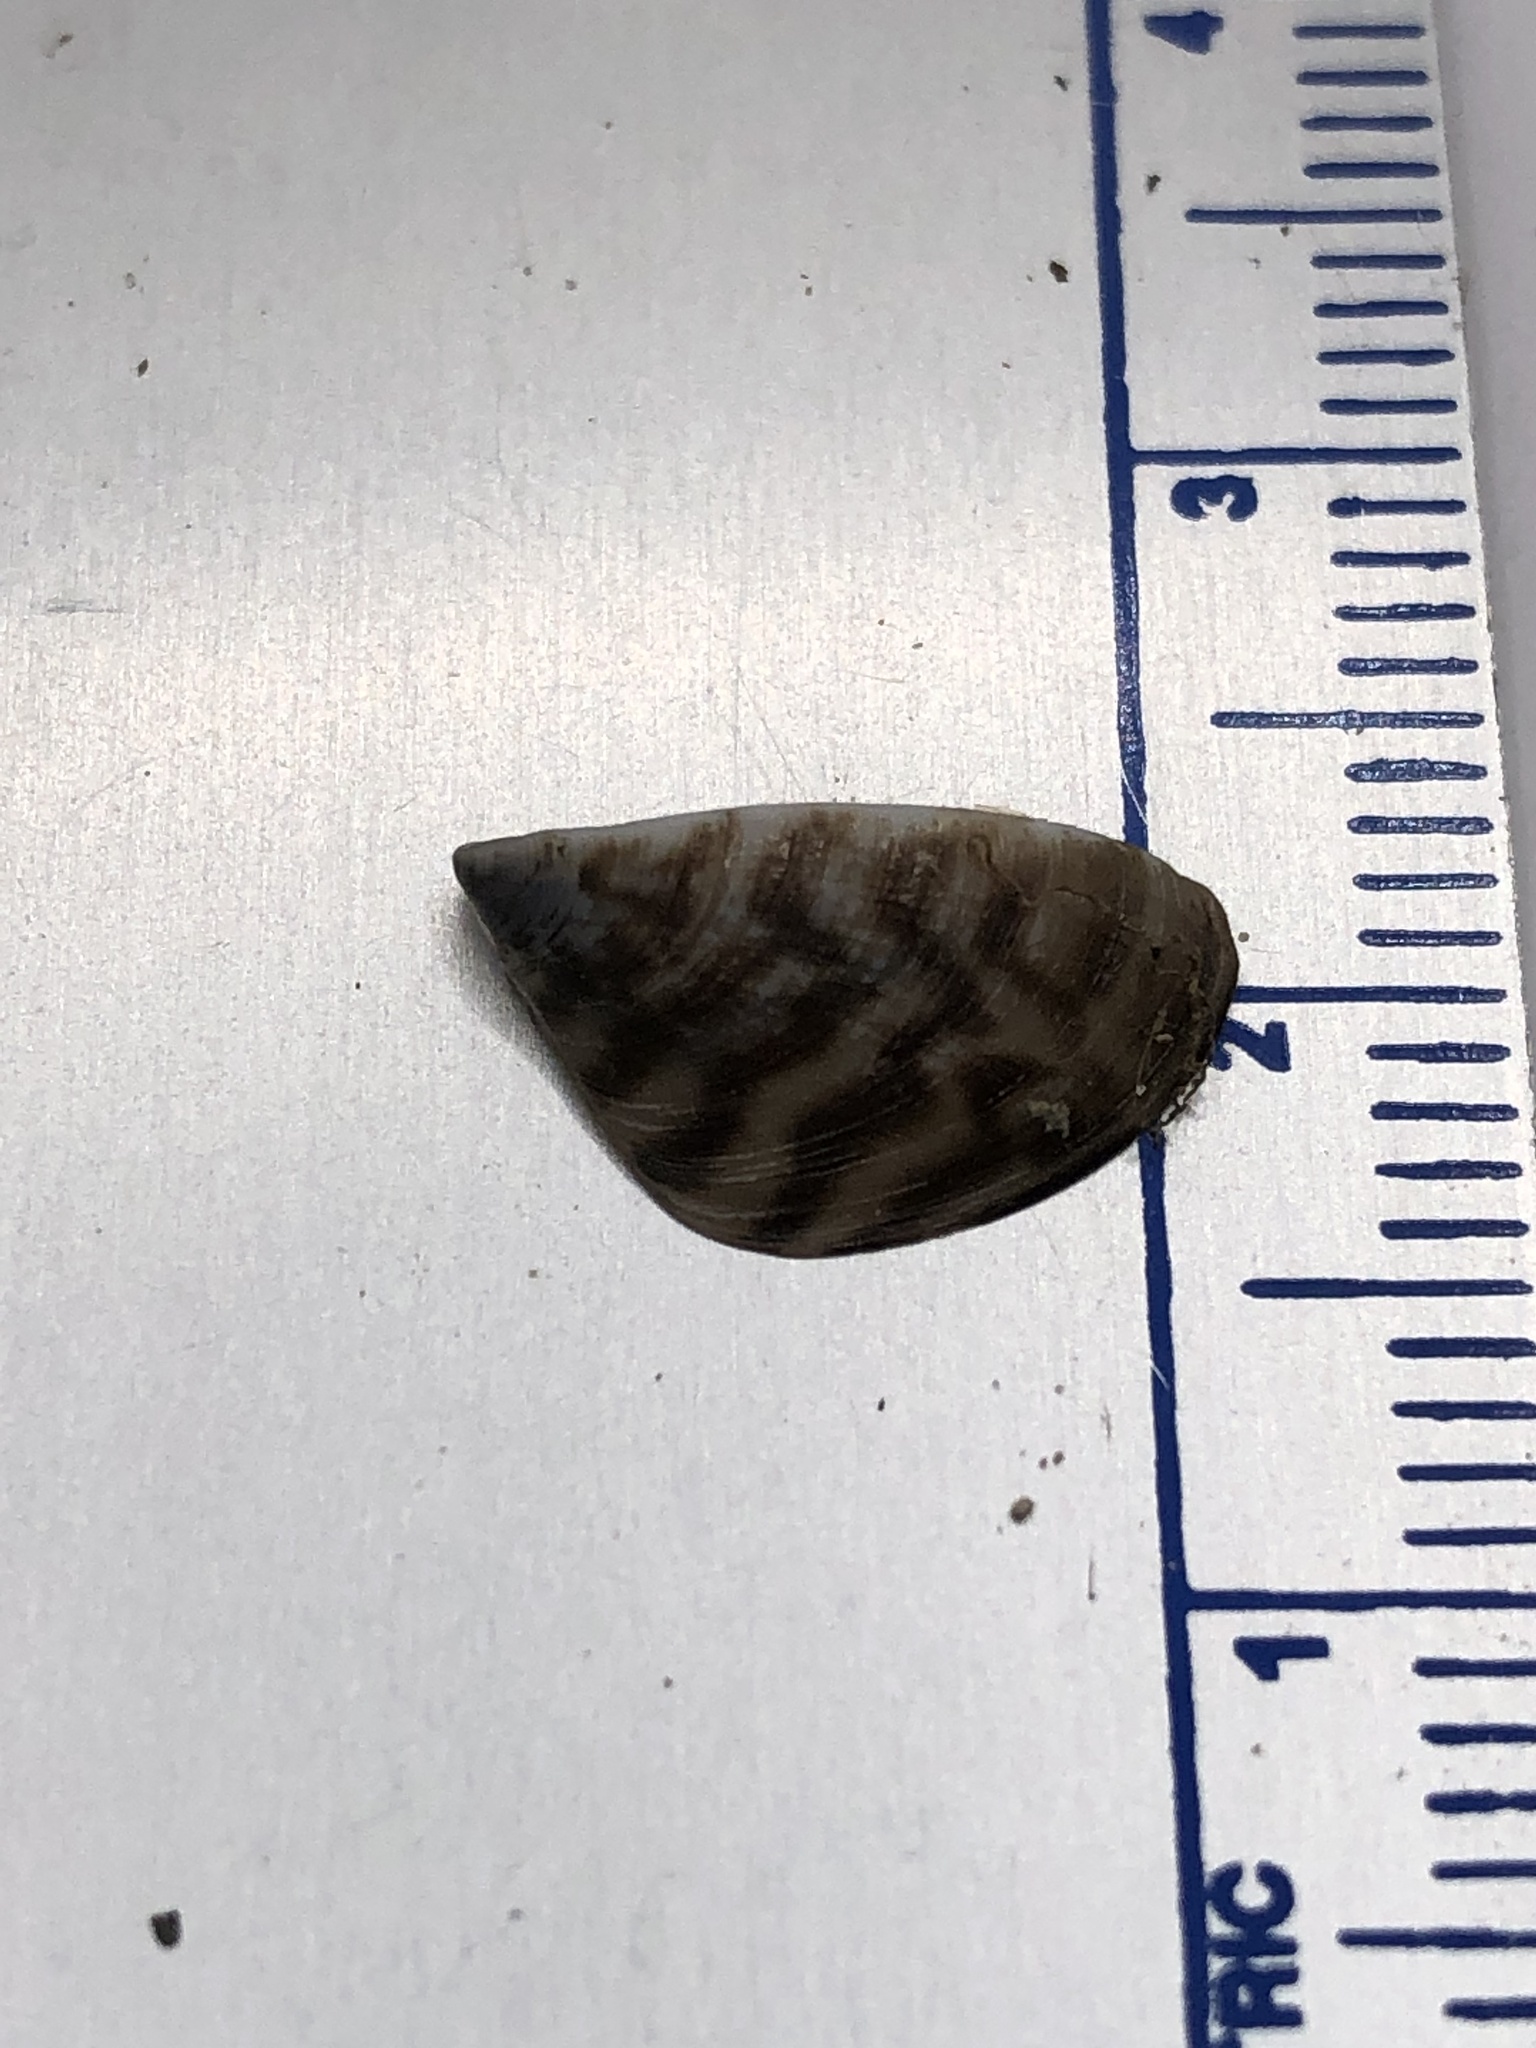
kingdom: Animalia
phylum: Mollusca
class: Bivalvia
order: Myida
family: Dreissenidae
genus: Dreissena
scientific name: Dreissena polymorpha
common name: Zebra mussel
